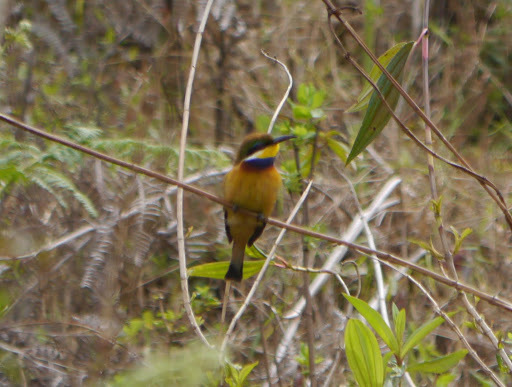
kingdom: Animalia
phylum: Chordata
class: Aves
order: Coraciiformes
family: Meropidae
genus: Merops
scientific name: Merops variegatus
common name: Blue-breasted bee-eater
